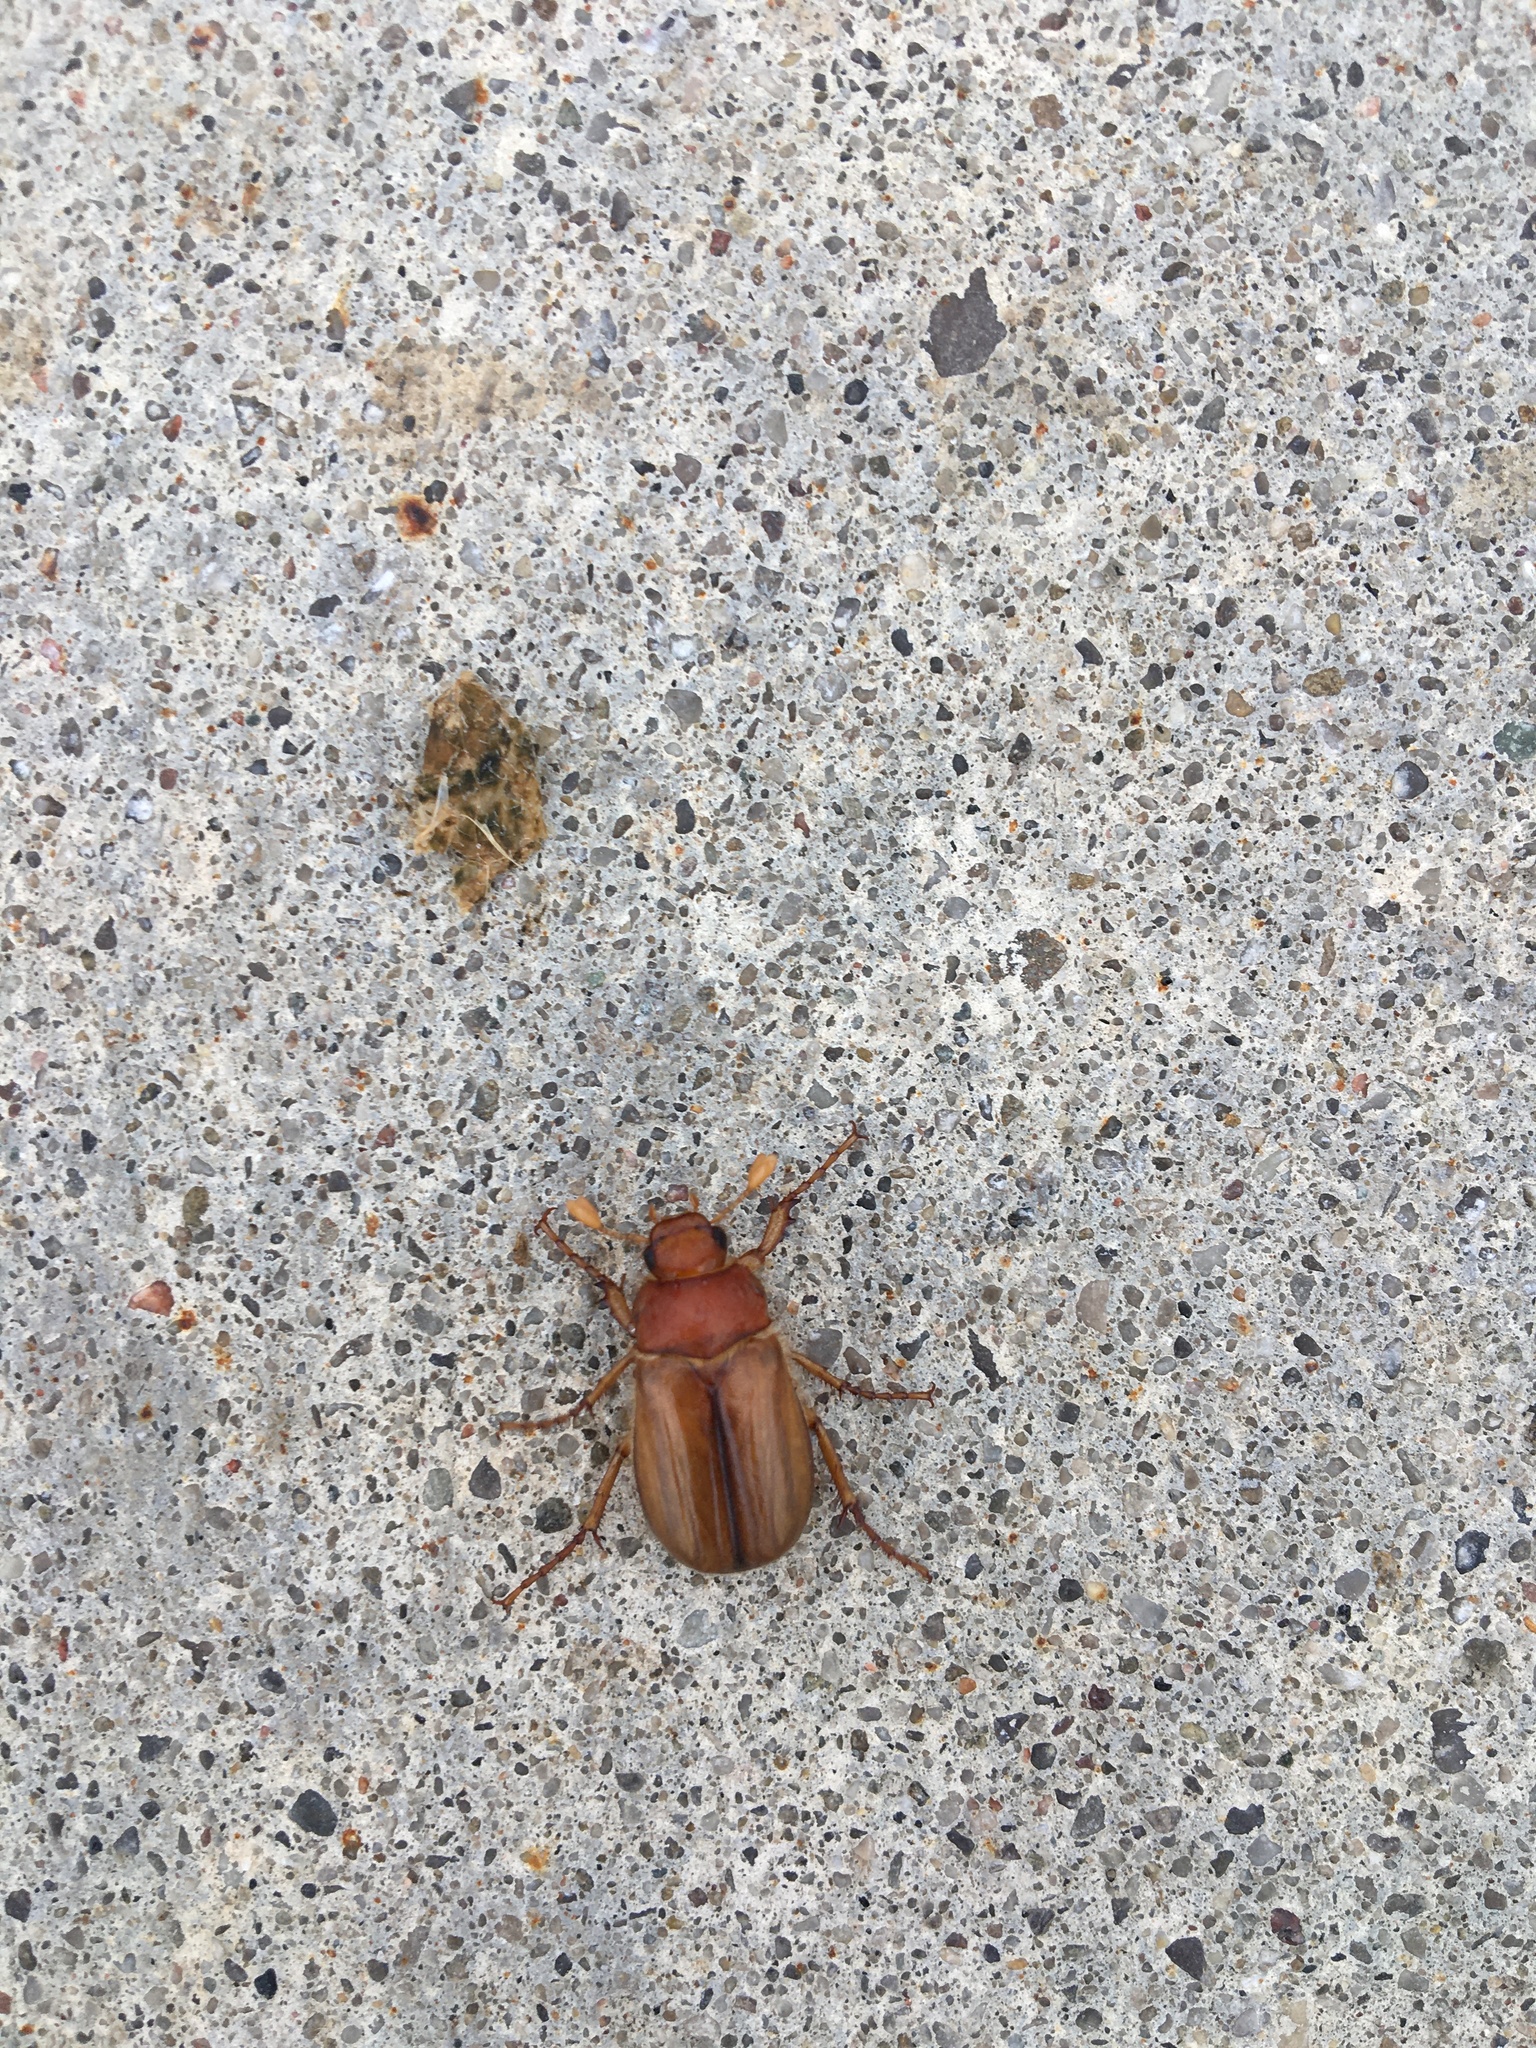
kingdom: Animalia
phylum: Arthropoda
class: Insecta
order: Coleoptera
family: Scarabaeidae
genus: Amphimallon
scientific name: Amphimallon majale
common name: European chafer
